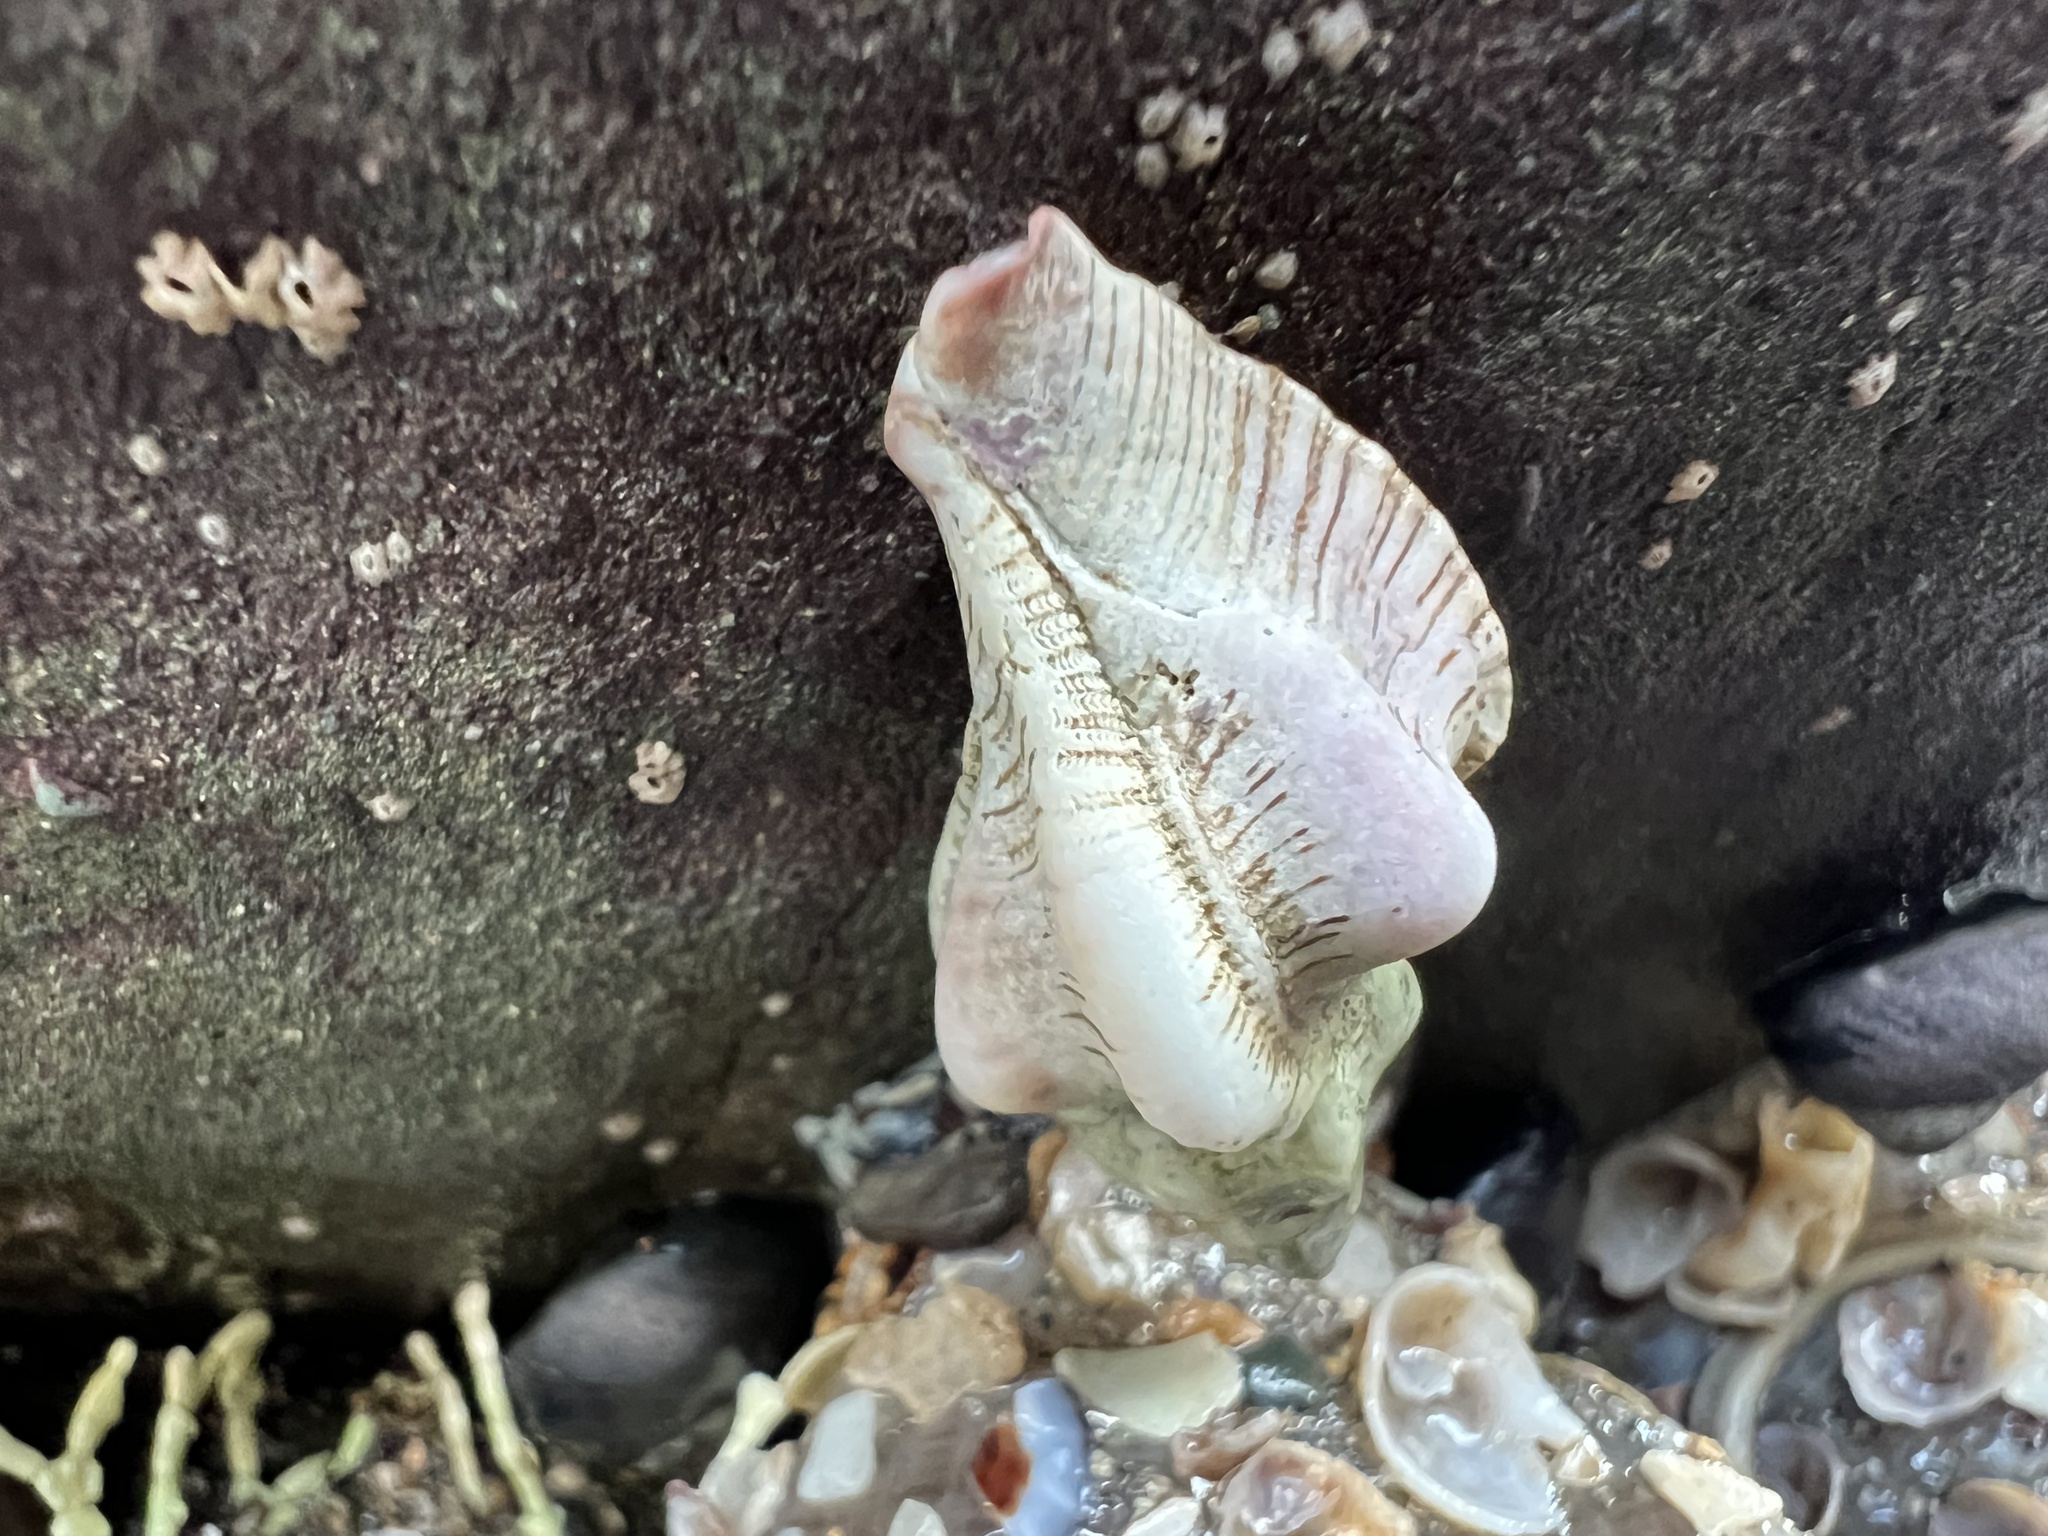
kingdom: Animalia
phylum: Mollusca
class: Gastropoda
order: Neogastropoda
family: Muricidae
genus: Pteropurpura
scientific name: Pteropurpura festiva
